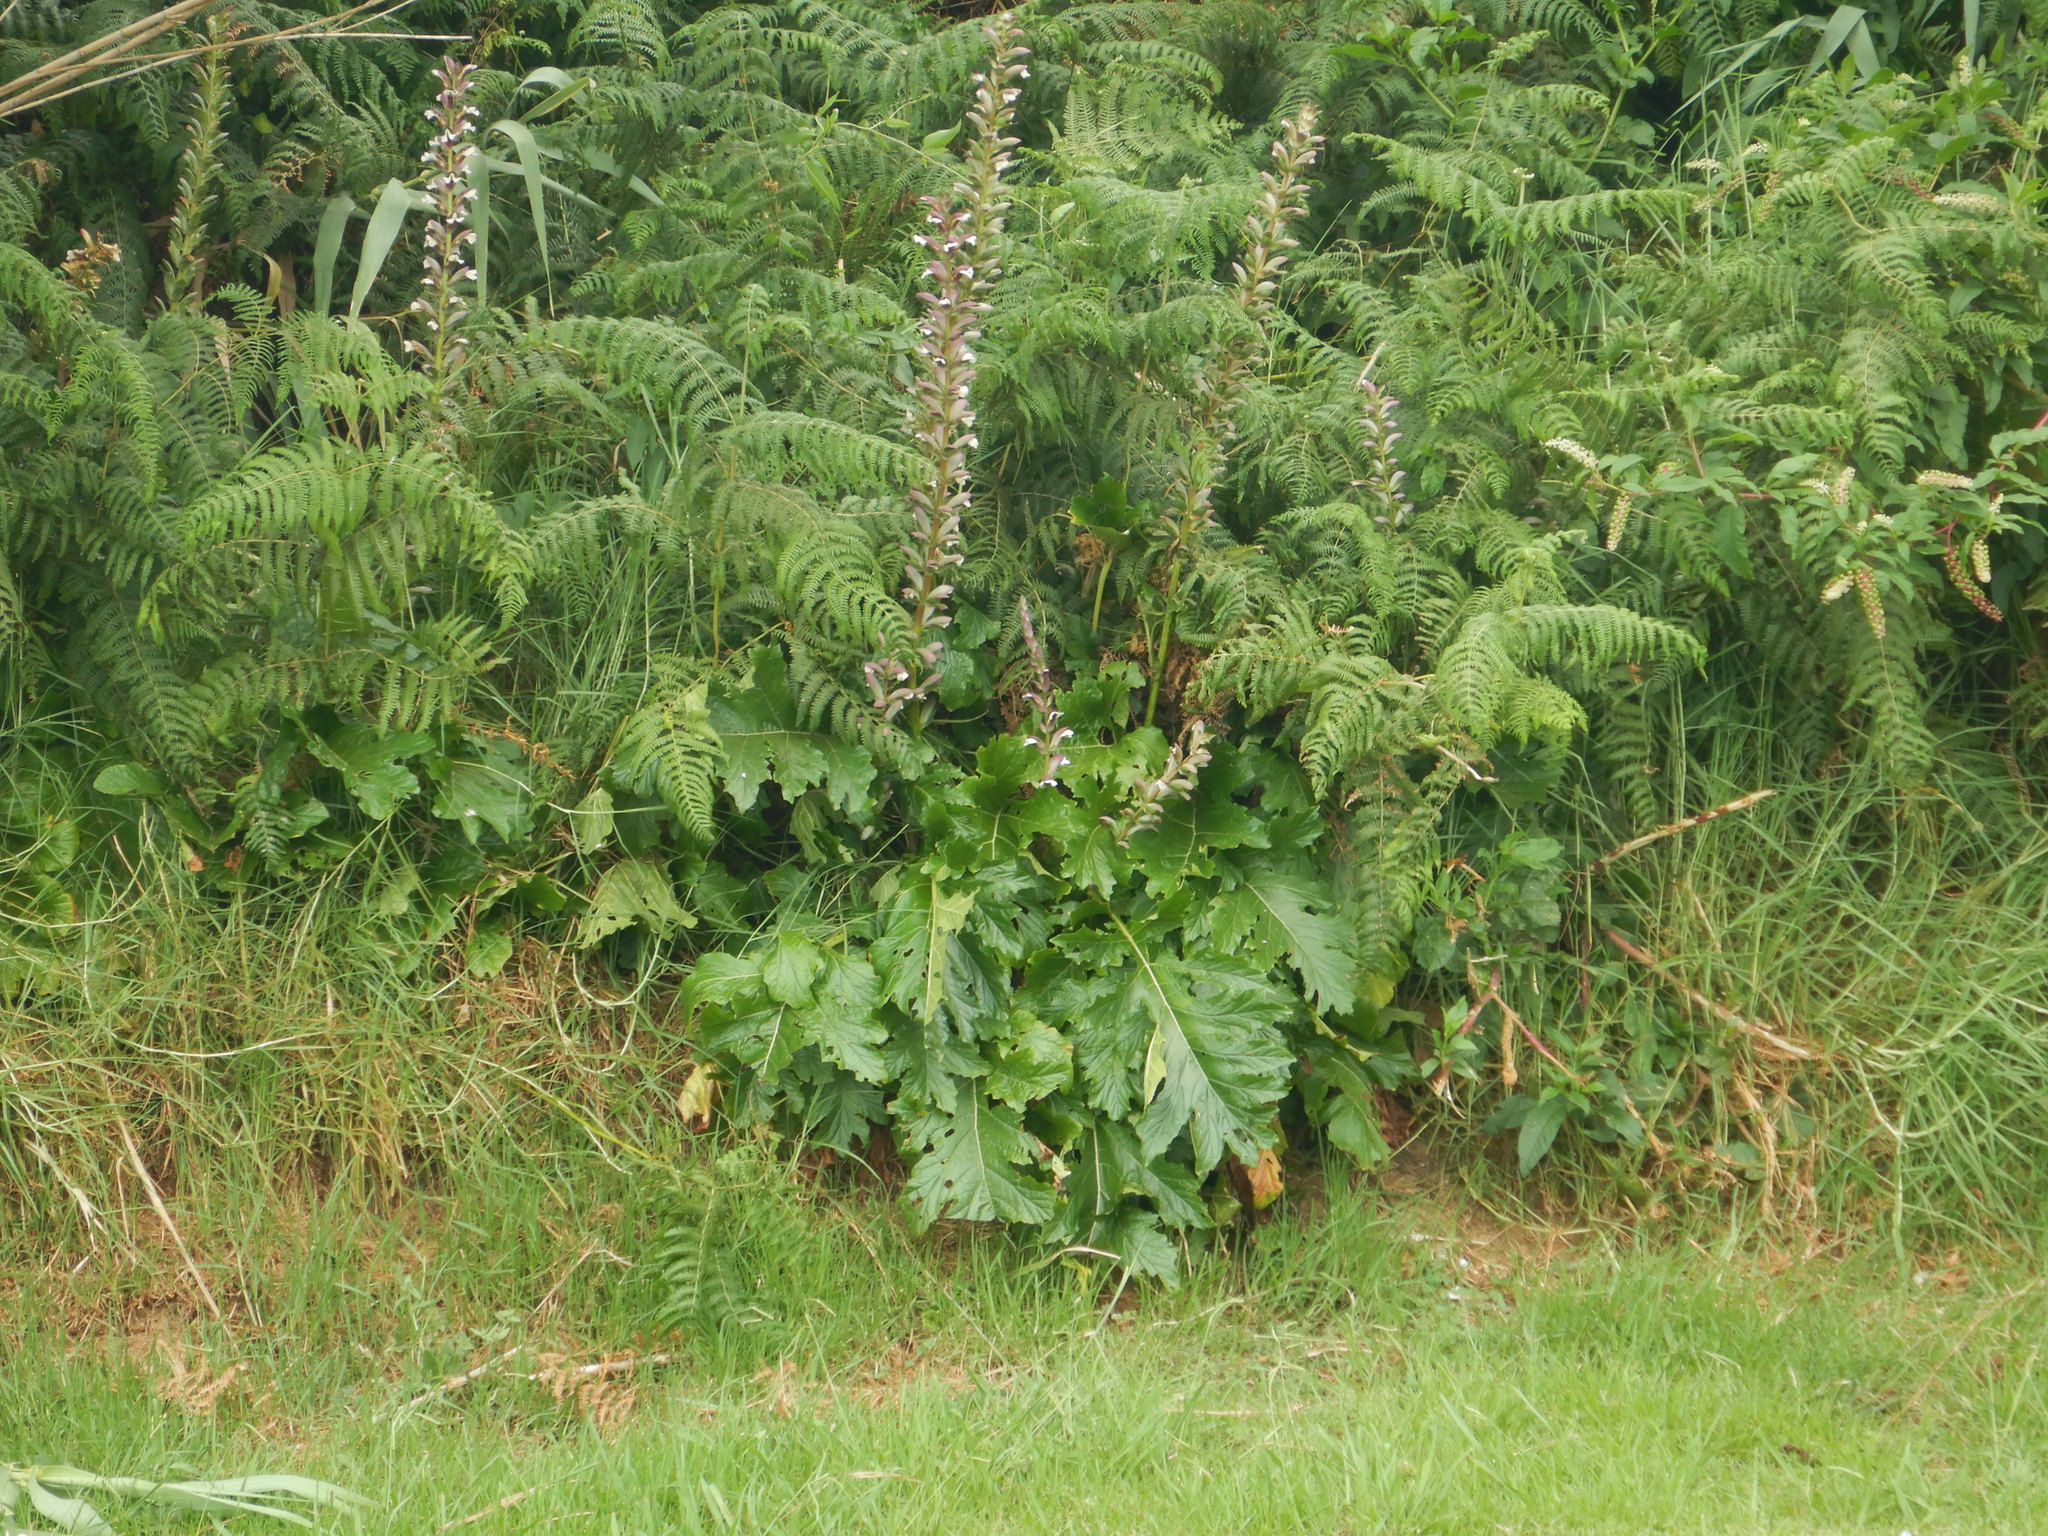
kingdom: Plantae
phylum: Tracheophyta
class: Magnoliopsida
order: Lamiales
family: Acanthaceae
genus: Acanthus
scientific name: Acanthus mollis
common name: Bear's-breech
